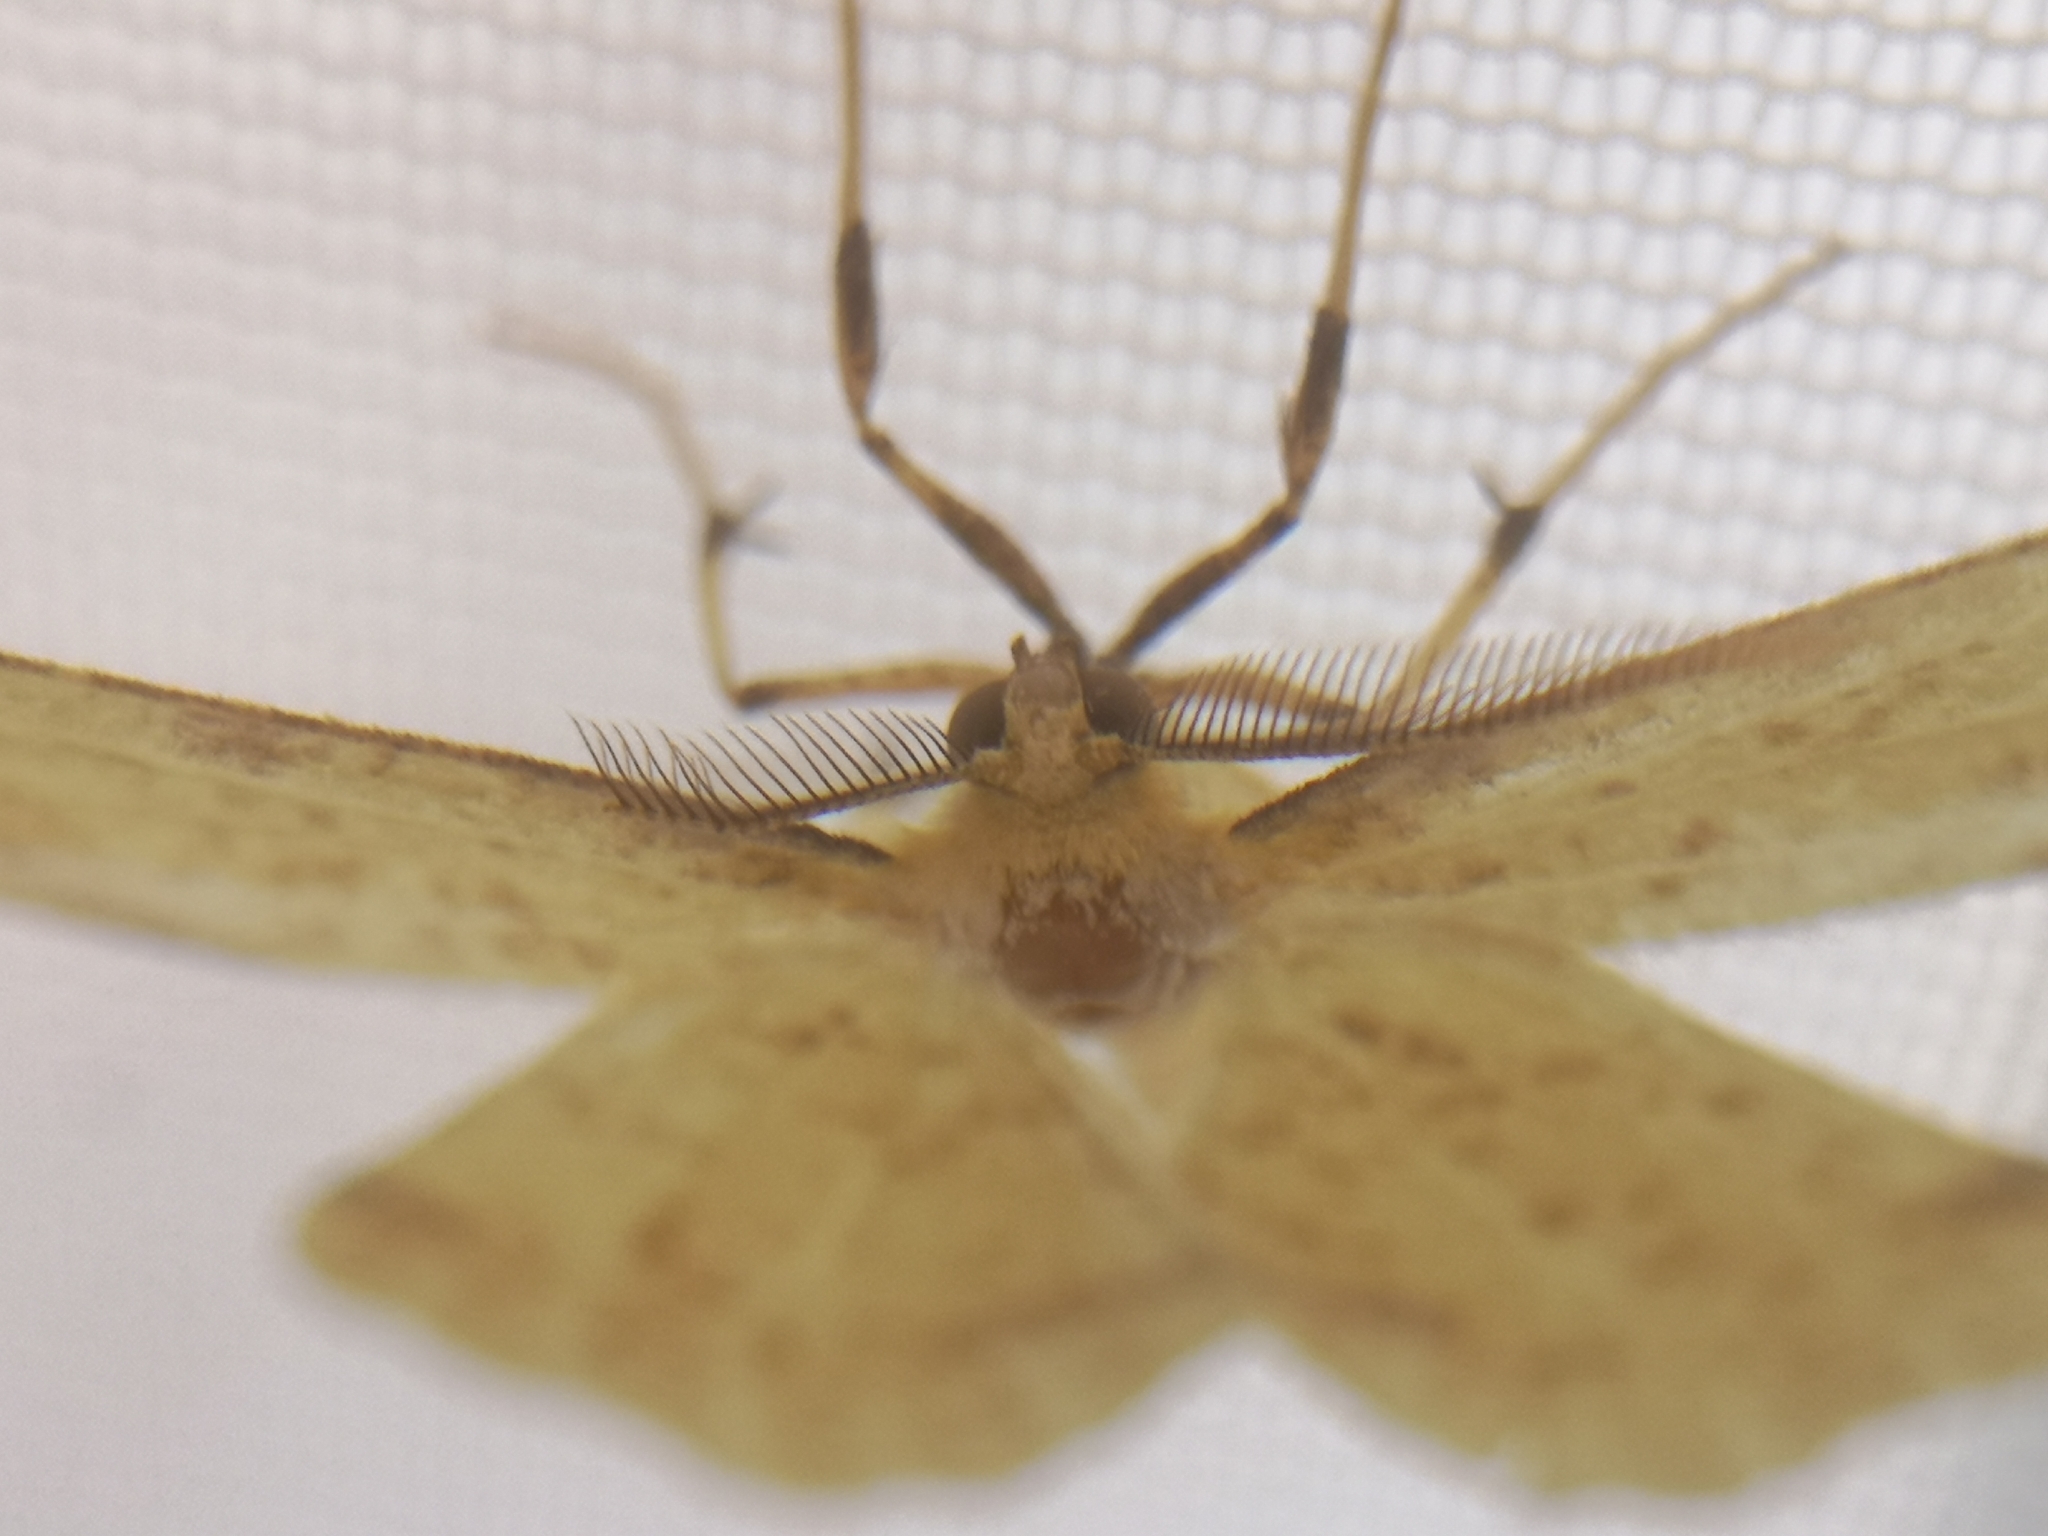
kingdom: Animalia
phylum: Arthropoda
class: Insecta
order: Lepidoptera
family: Geometridae
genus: Xanthotype
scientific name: Xanthotype
